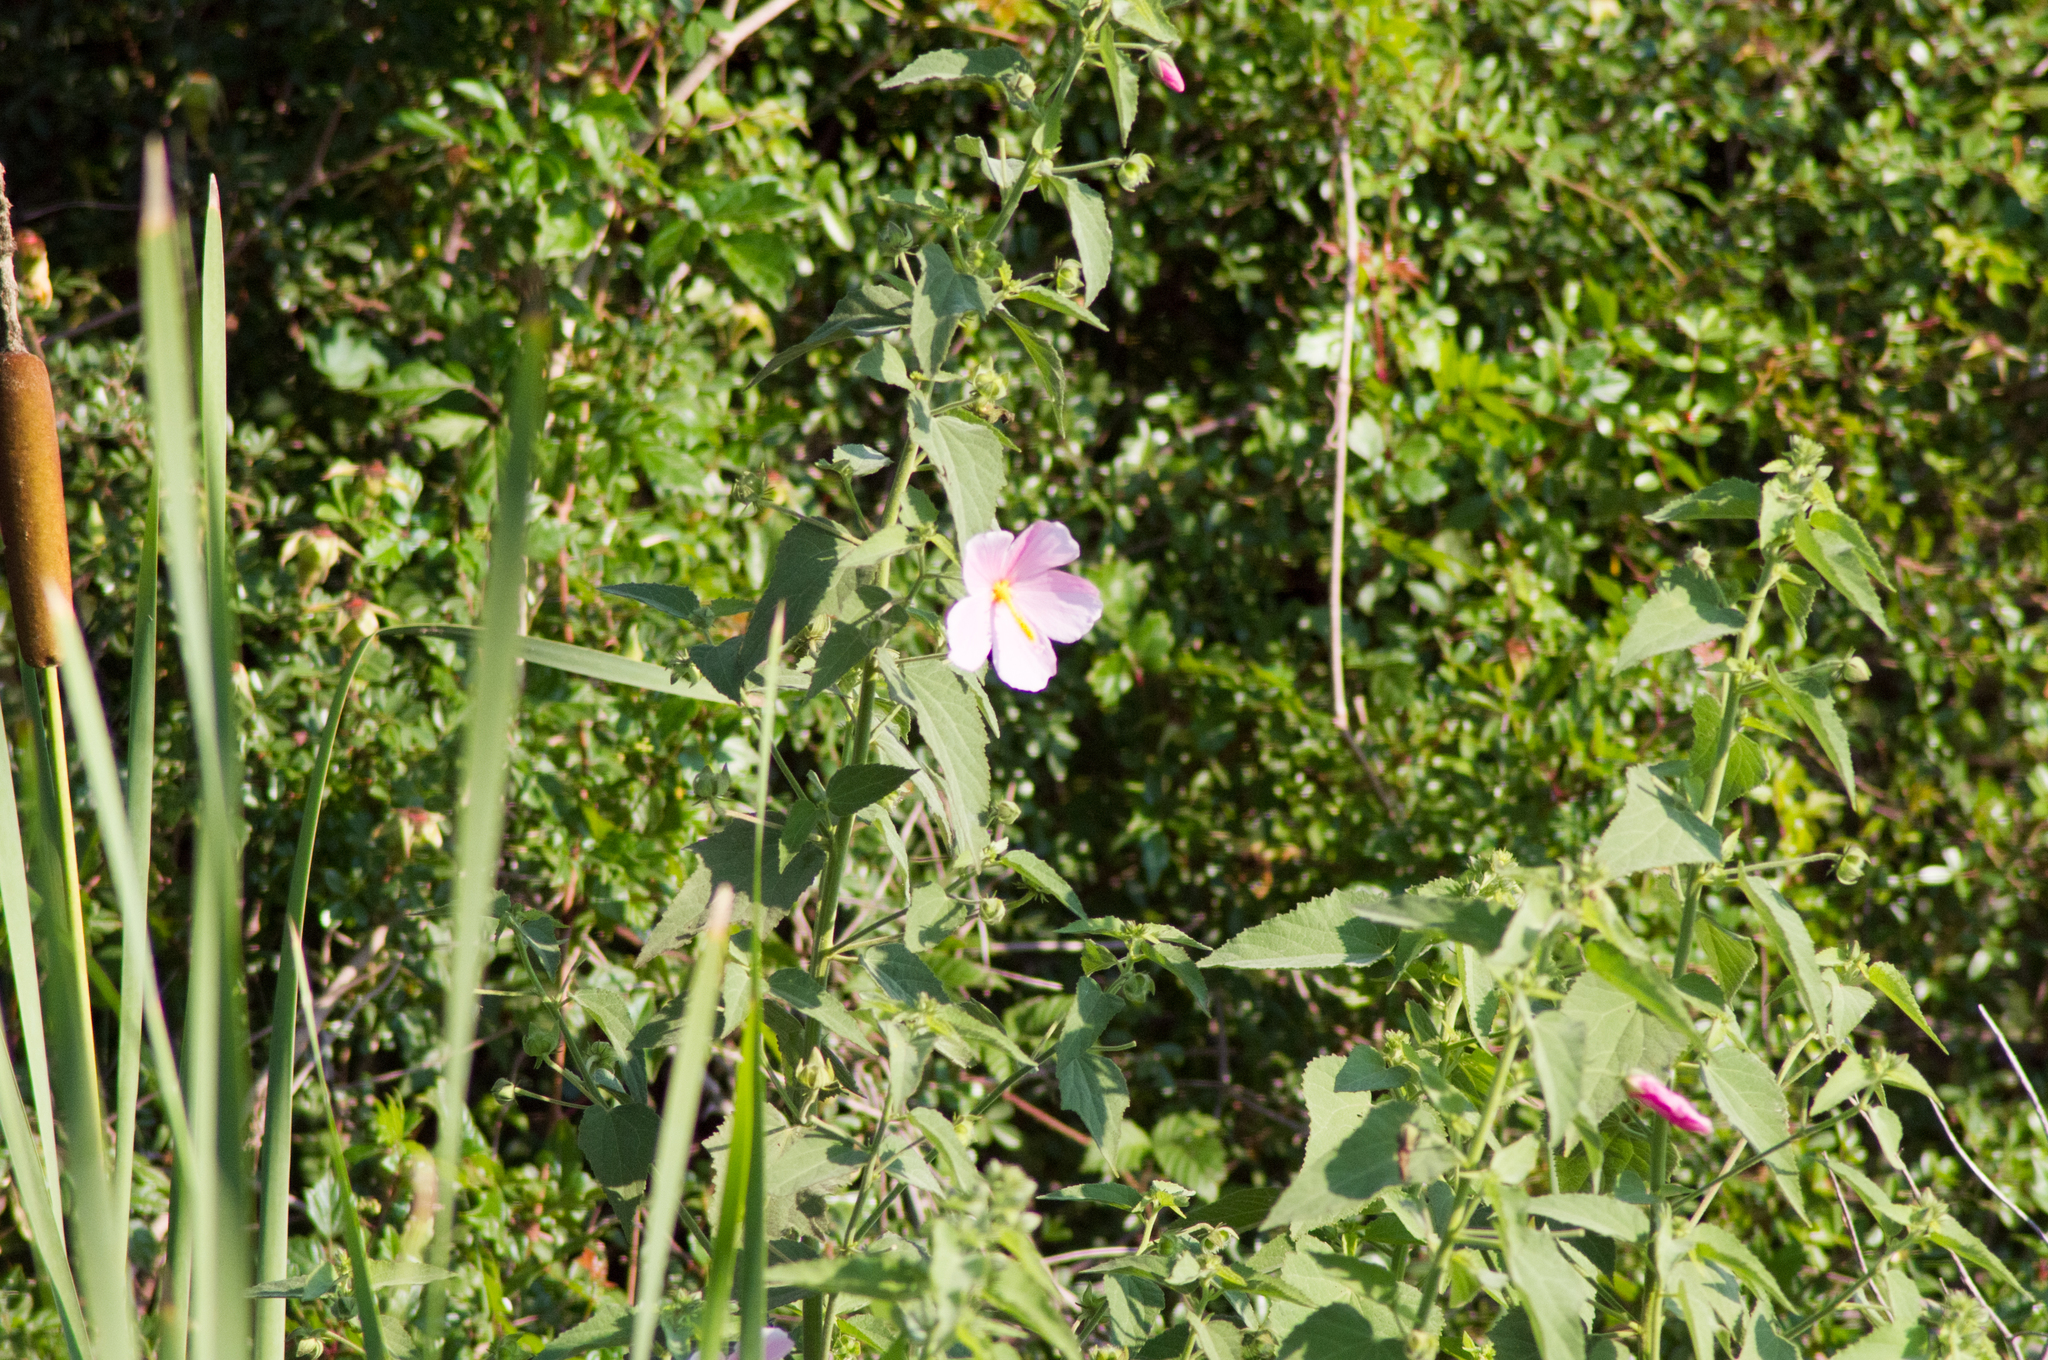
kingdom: Plantae
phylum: Tracheophyta
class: Magnoliopsida
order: Malvales
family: Malvaceae
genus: Kosteletzkya
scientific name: Kosteletzkya pentacarpos
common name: Virginia saltmarsh mallow
